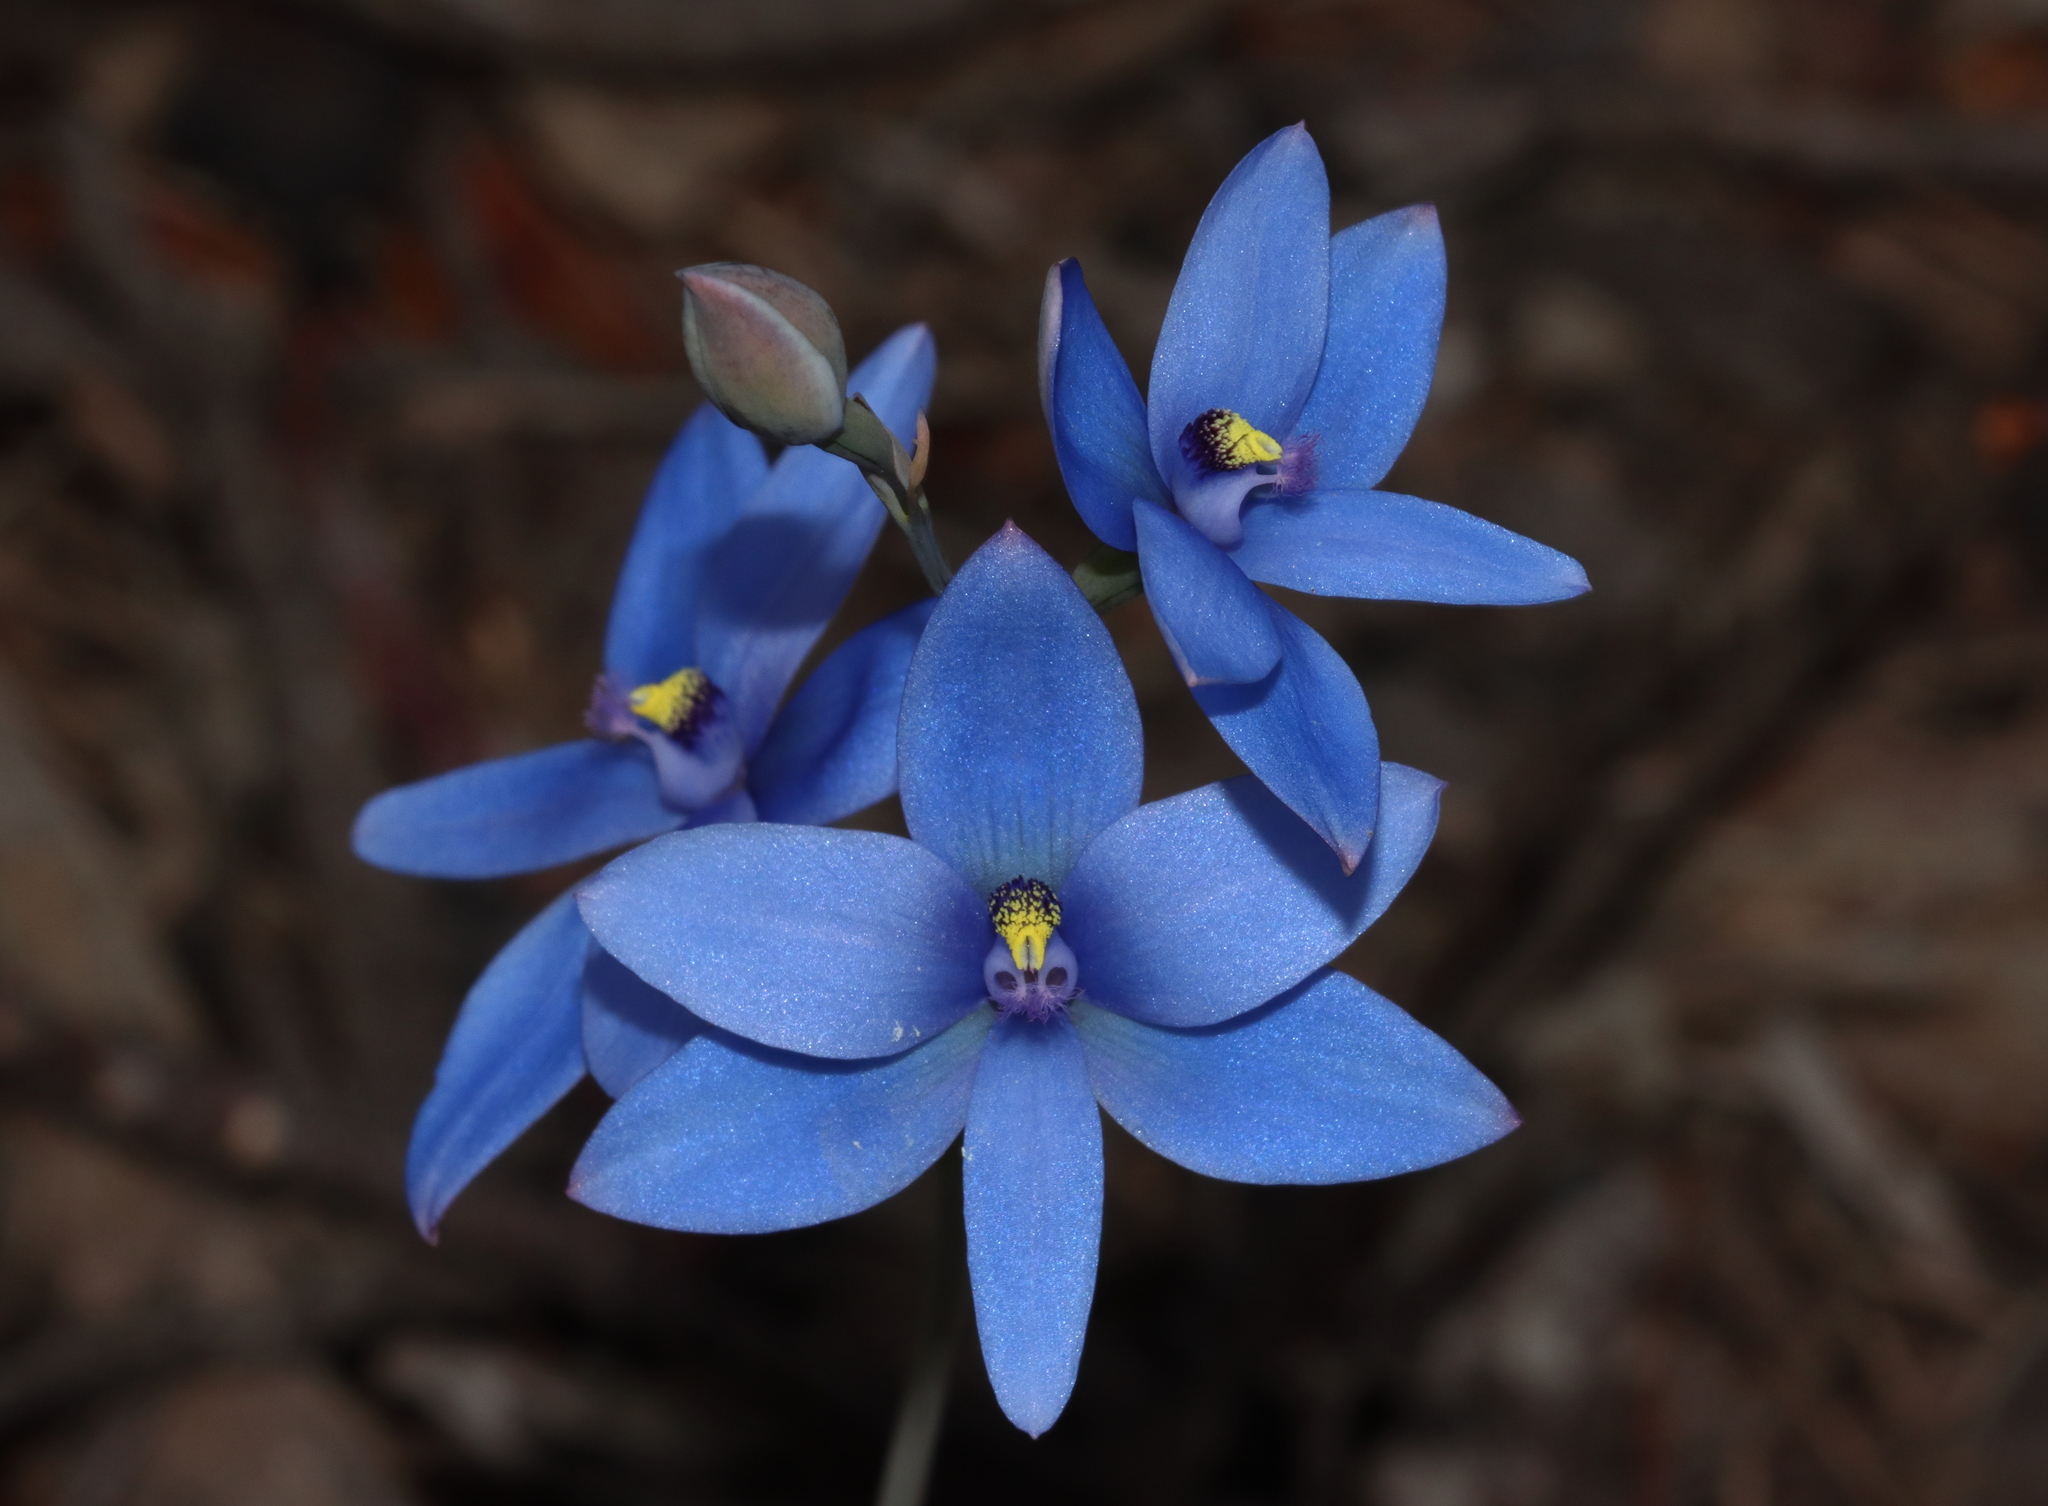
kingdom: Plantae
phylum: Tracheophyta
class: Liliopsida
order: Asparagales
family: Orchidaceae
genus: Thelymitra
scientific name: Thelymitra crinita
